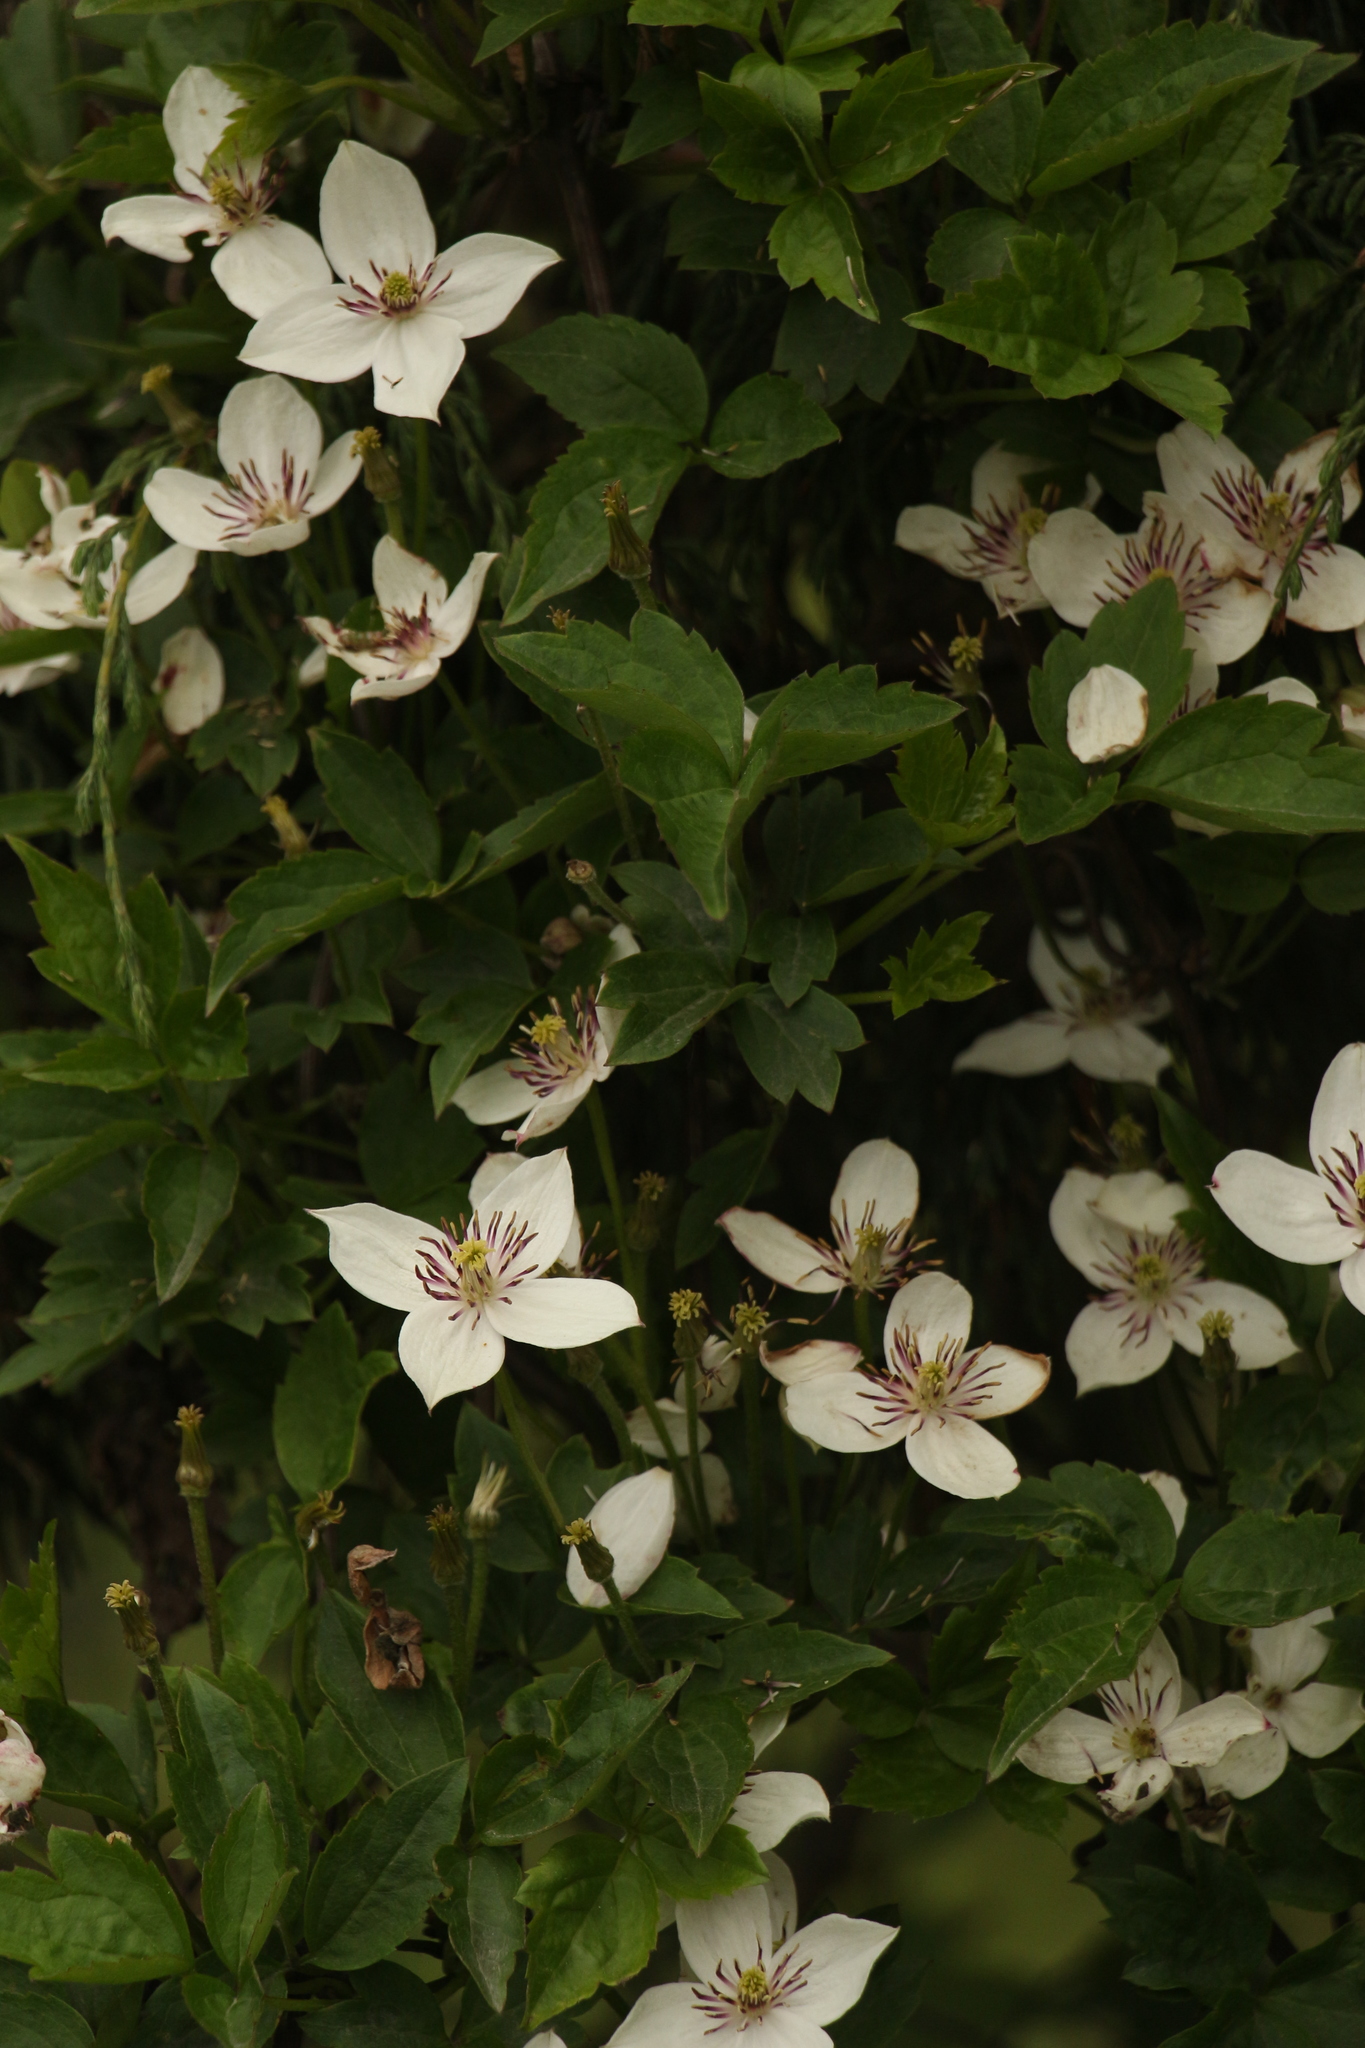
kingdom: Plantae
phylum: Tracheophyta
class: Magnoliopsida
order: Ranunculales
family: Ranunculaceae
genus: Clematis
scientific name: Clematis montana
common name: Himalayan clematis
